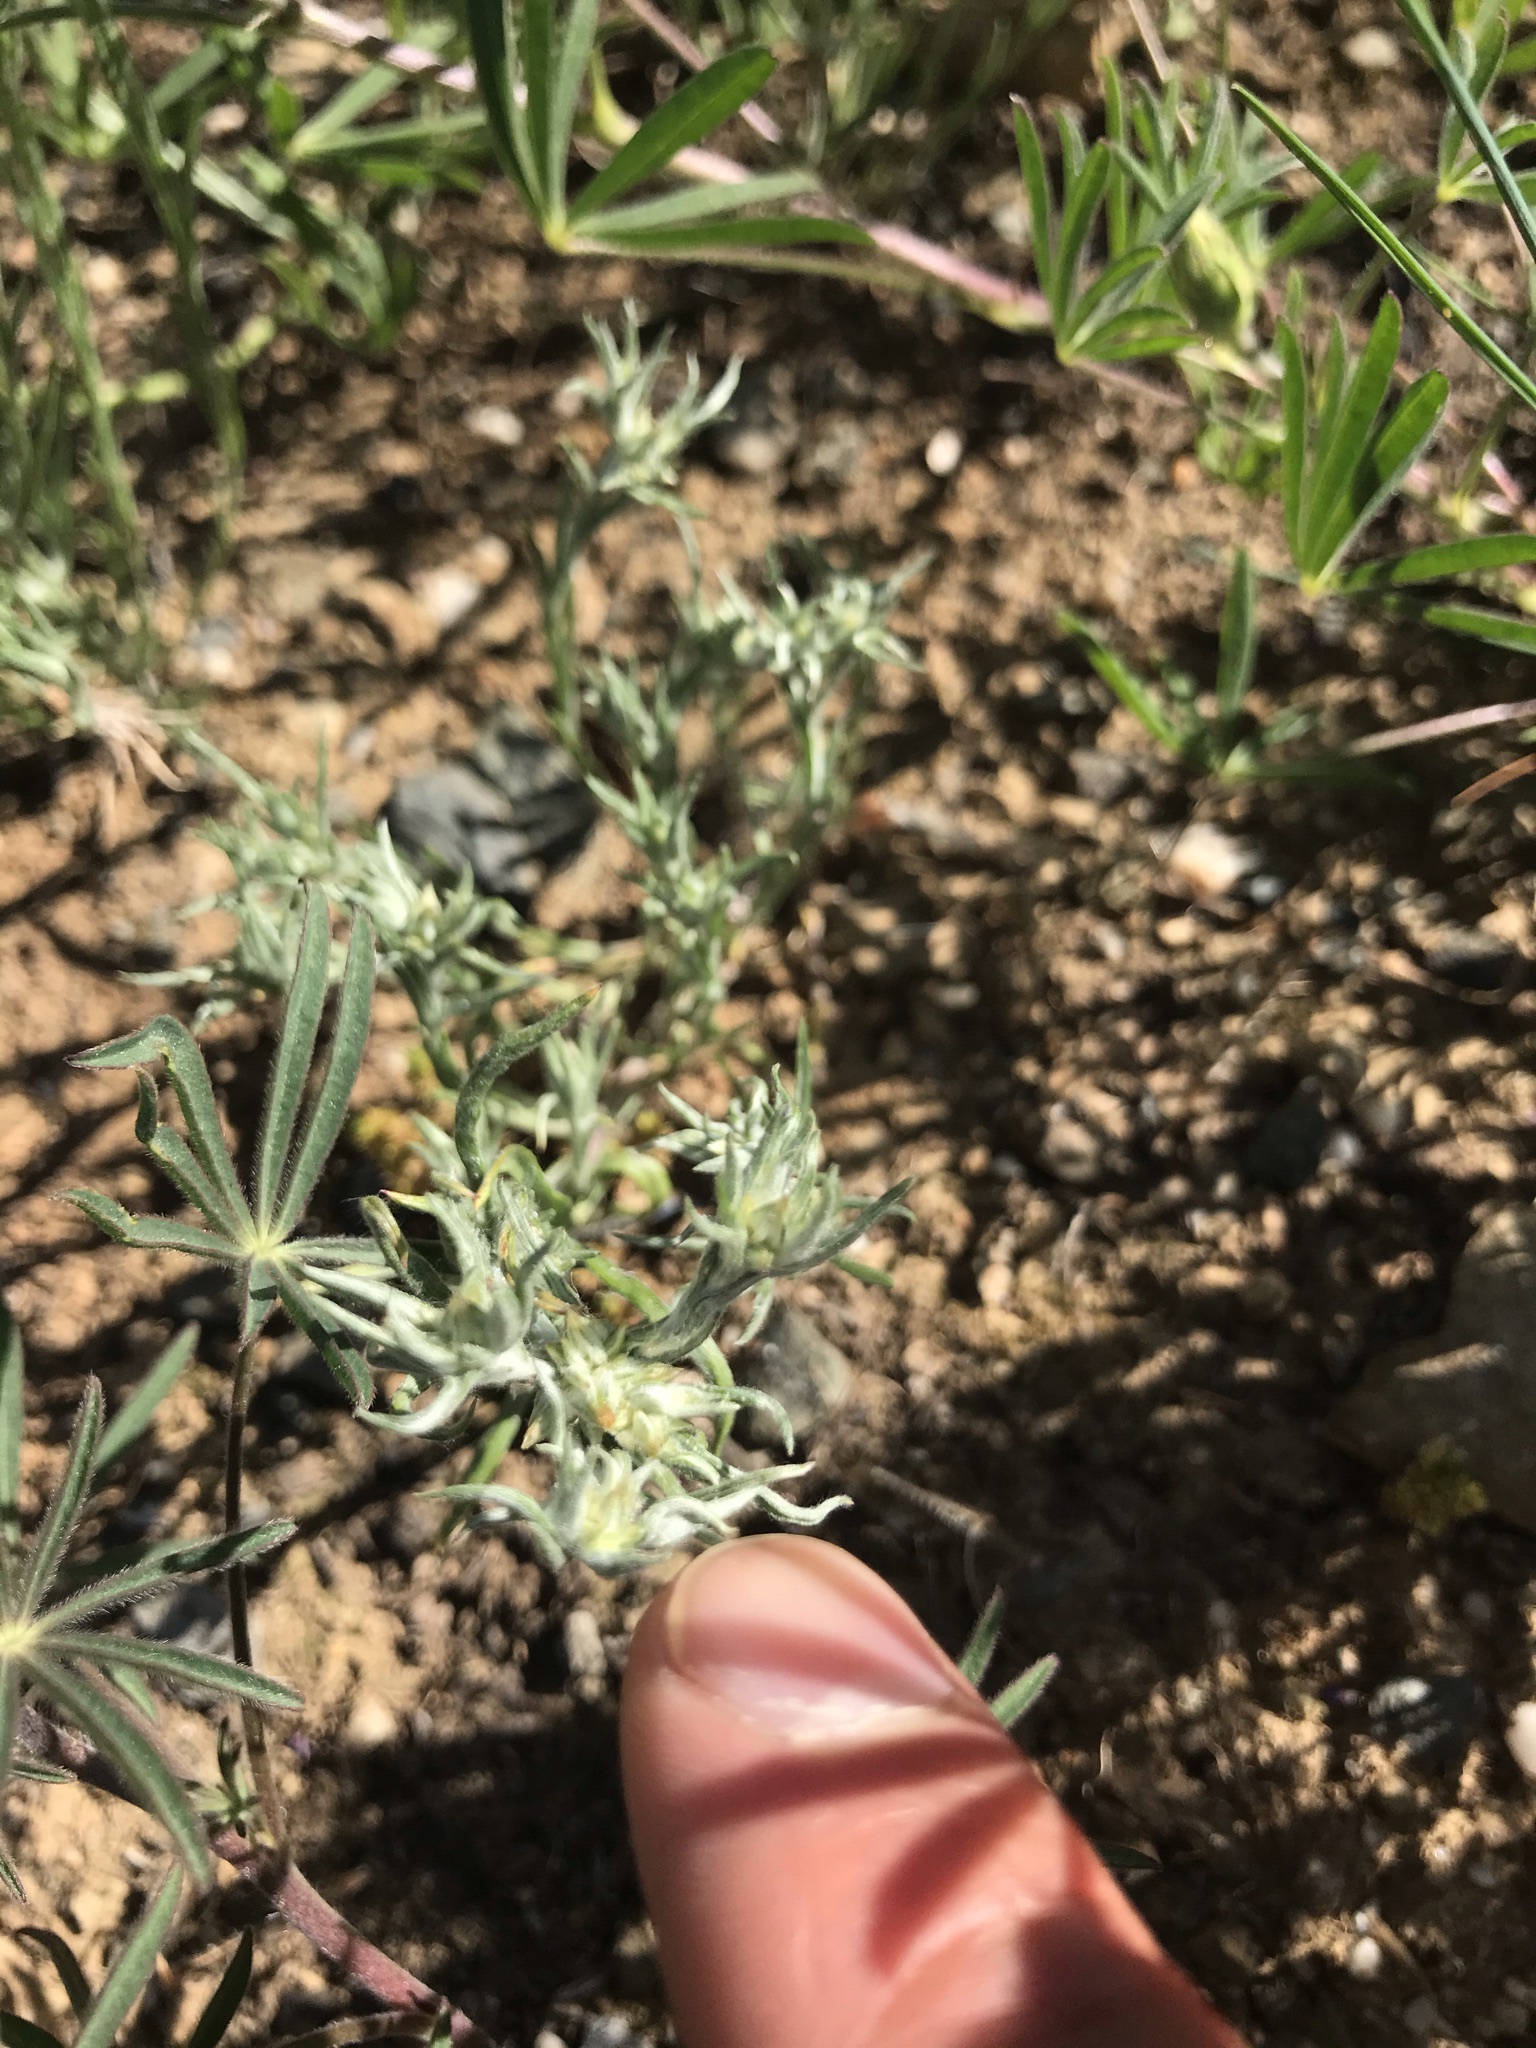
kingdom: Plantae
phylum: Tracheophyta
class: Magnoliopsida
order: Asterales
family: Asteraceae
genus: Logfia
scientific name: Logfia gallica
